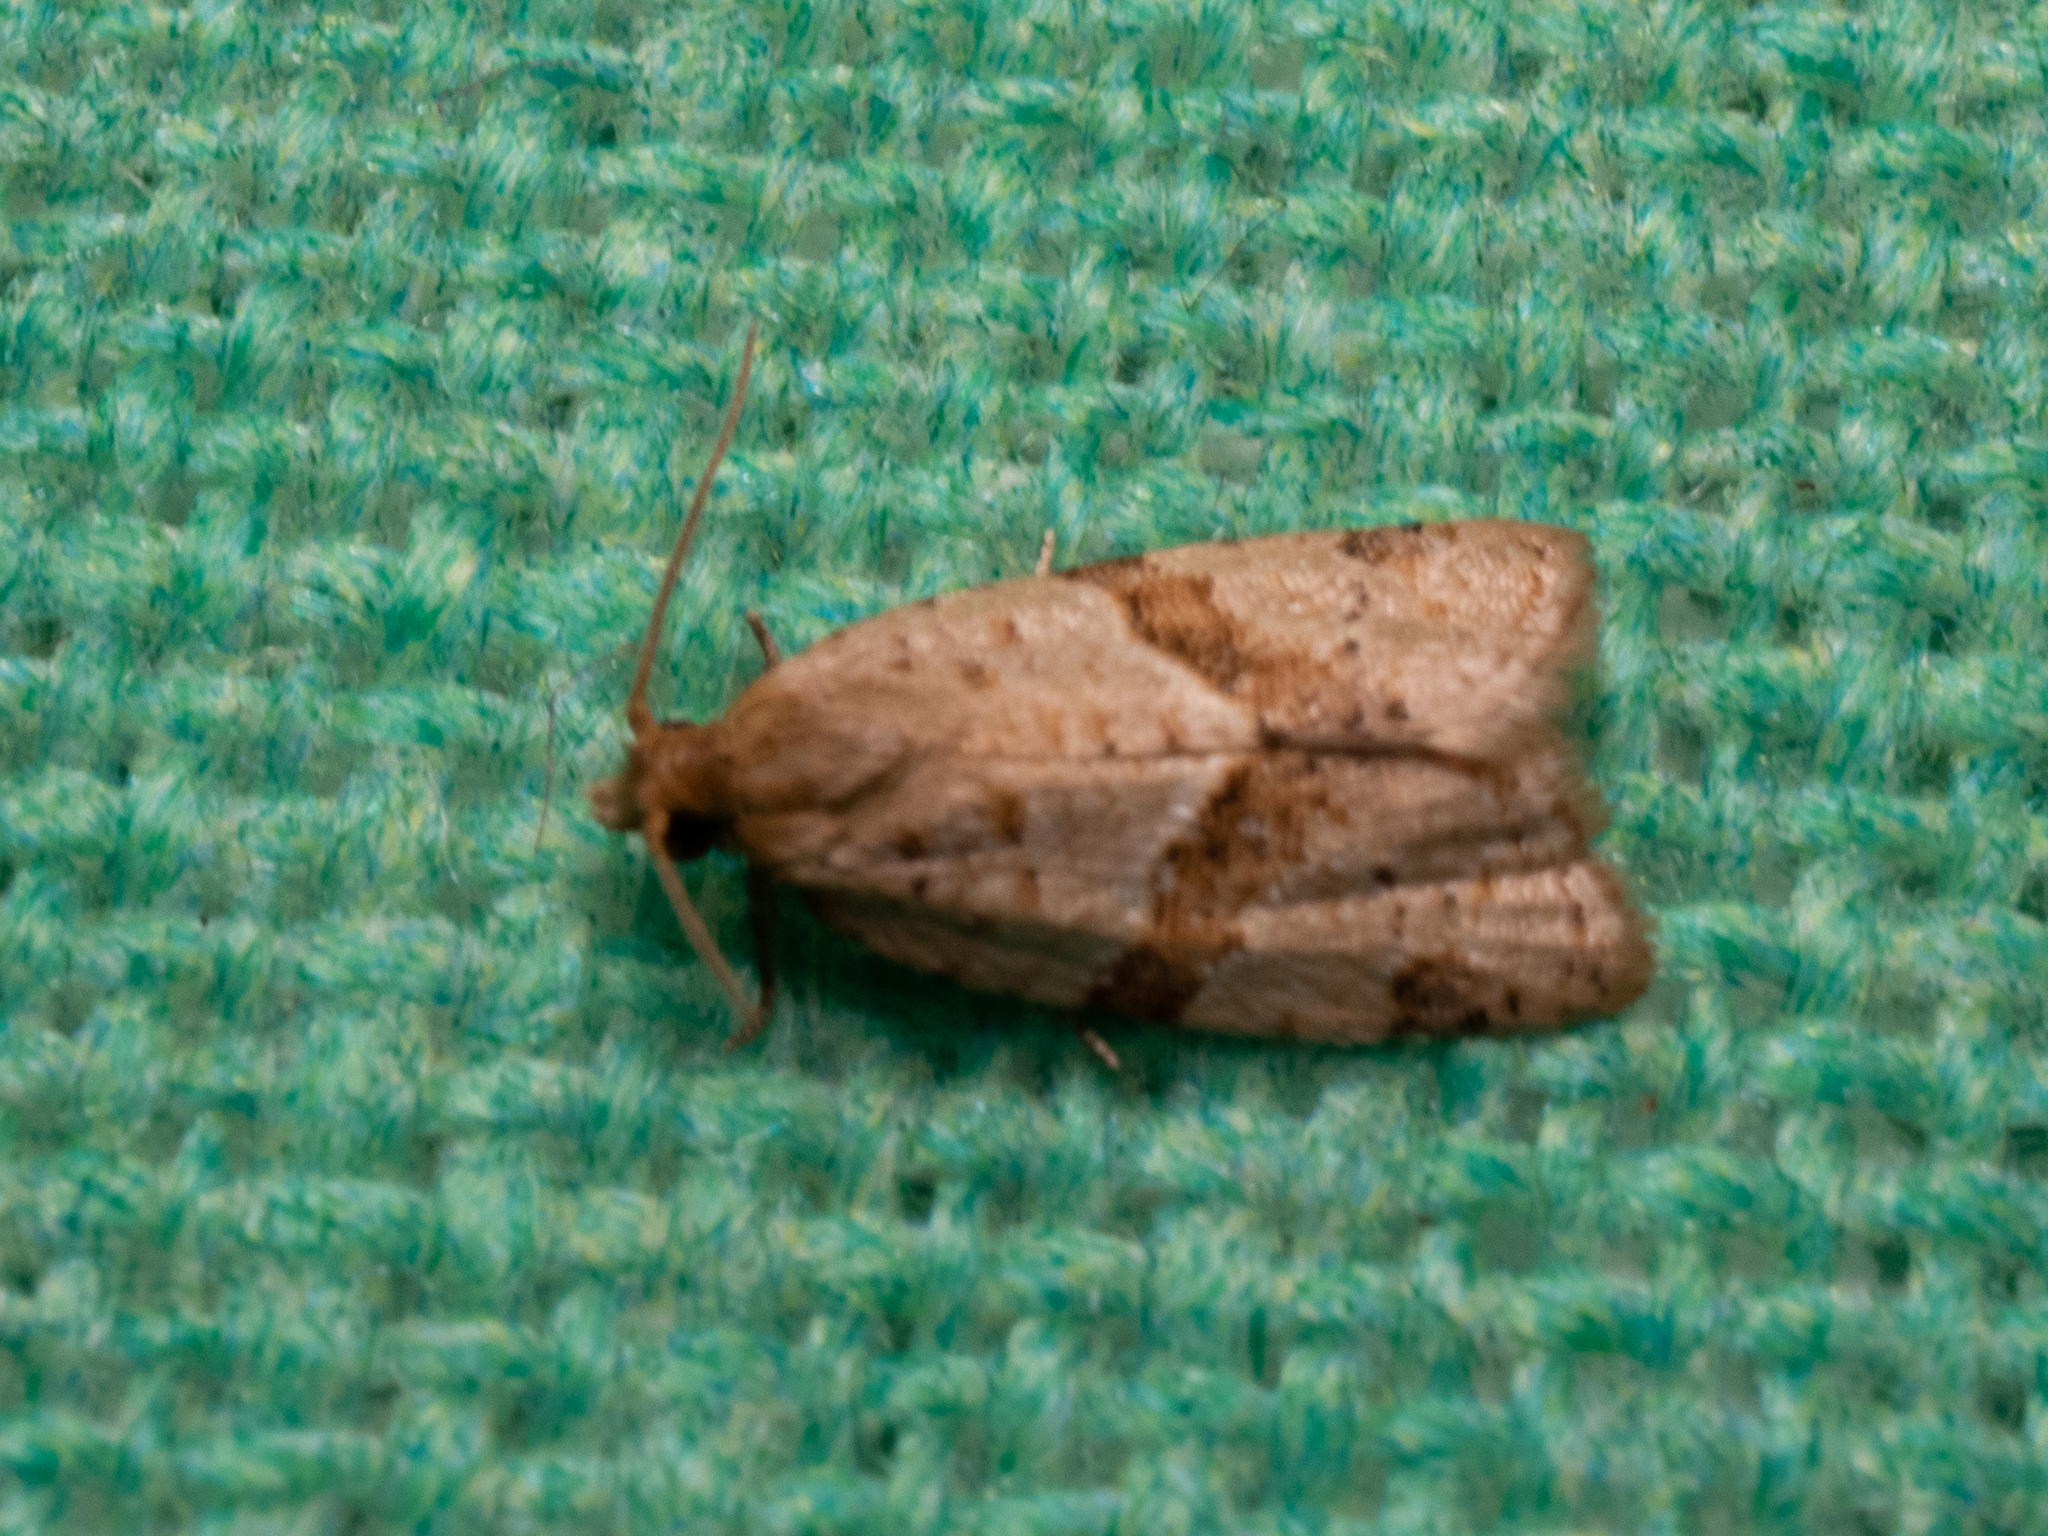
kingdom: Animalia
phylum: Arthropoda
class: Insecta
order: Lepidoptera
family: Tortricidae
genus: Clepsis
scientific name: Clepsis peritana
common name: Garden tortrix
